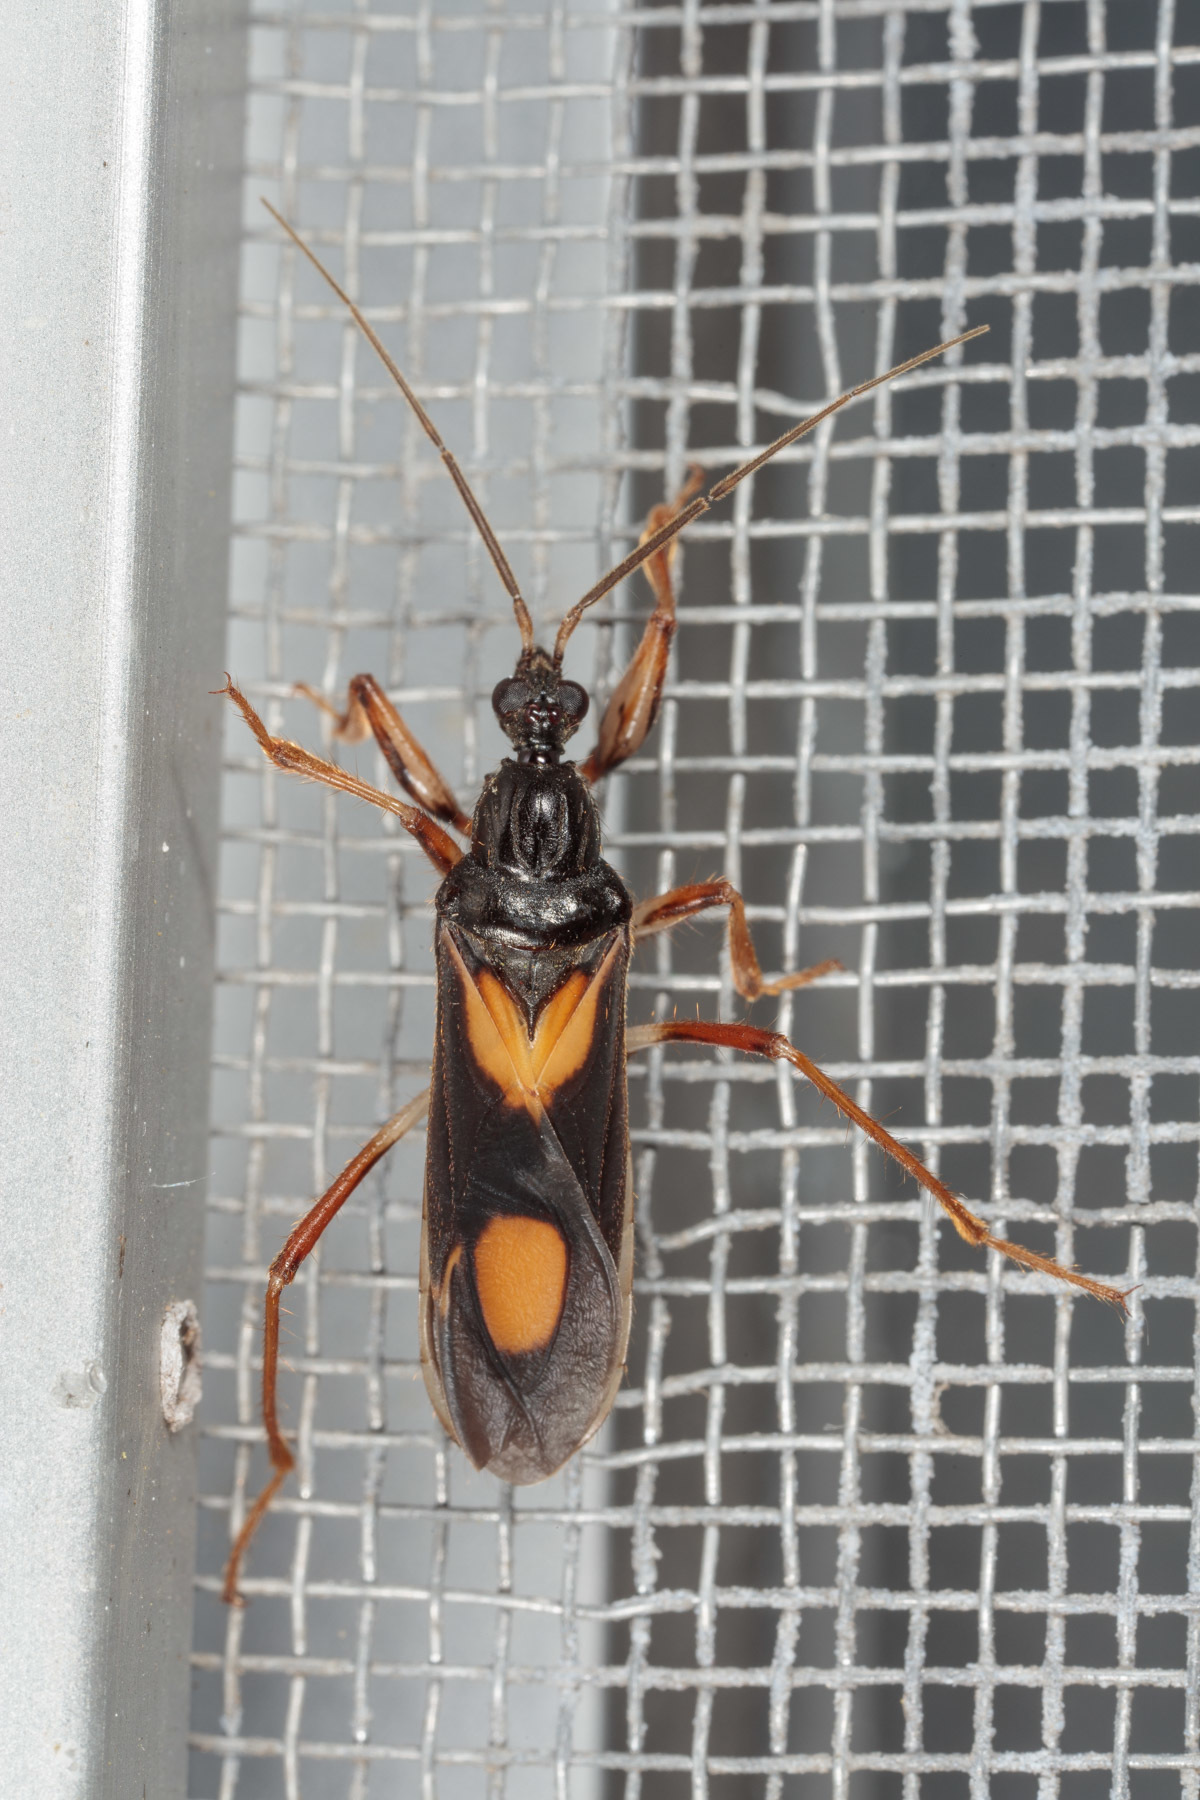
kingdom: Animalia
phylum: Arthropoda
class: Insecta
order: Hemiptera
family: Reduviidae
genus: Rasahus
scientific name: Rasahus hamatus
